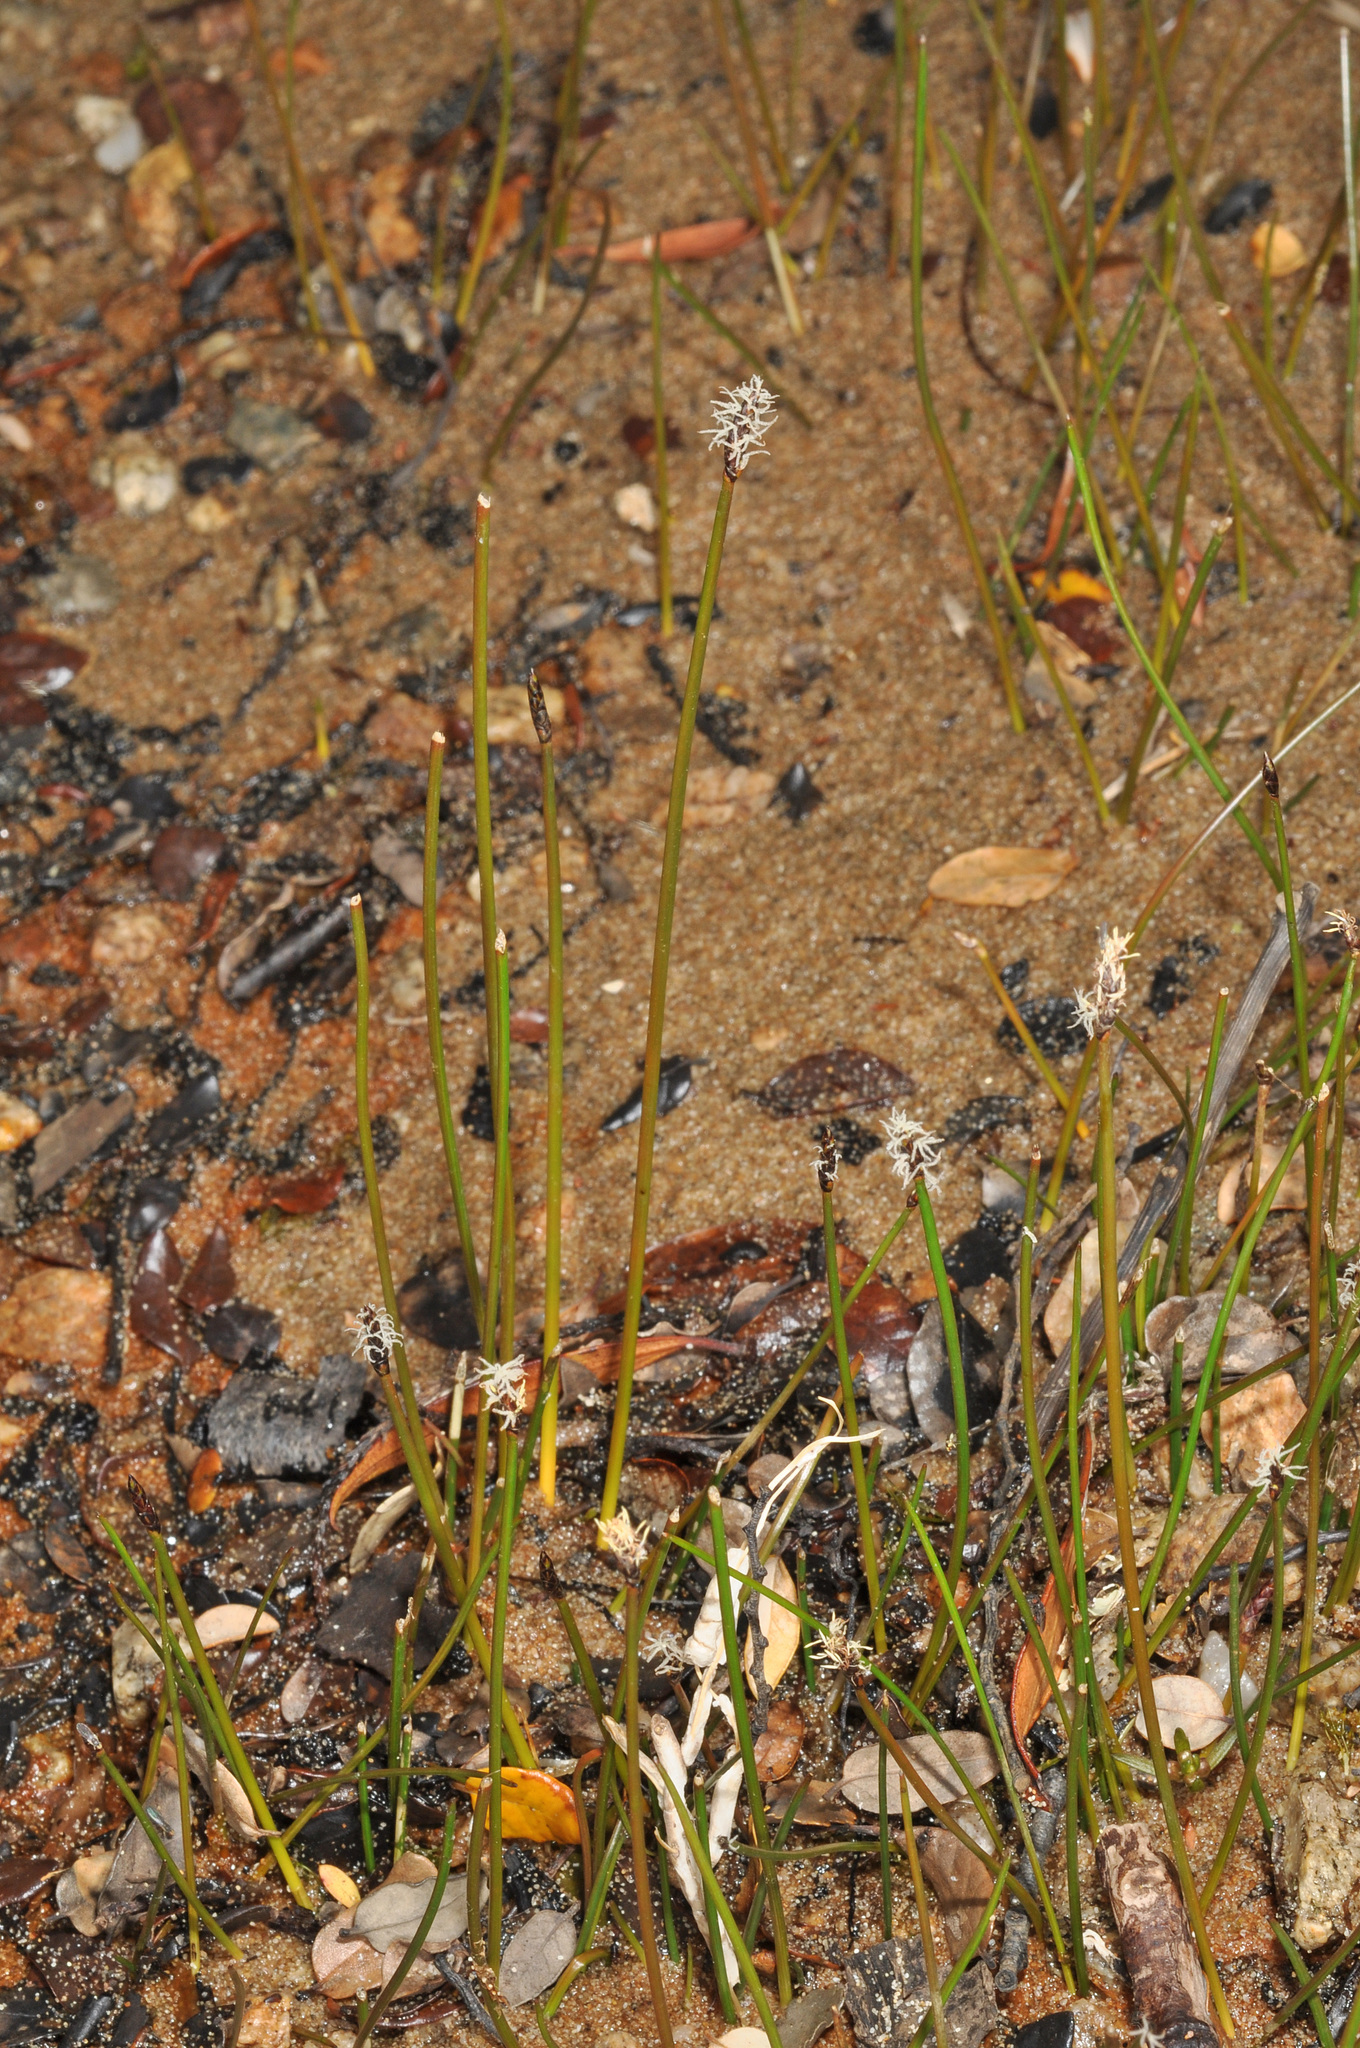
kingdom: Plantae
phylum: Tracheophyta
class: Liliopsida
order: Poales
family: Cyperaceae
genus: Eleocharis
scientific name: Eleocharis acuta
